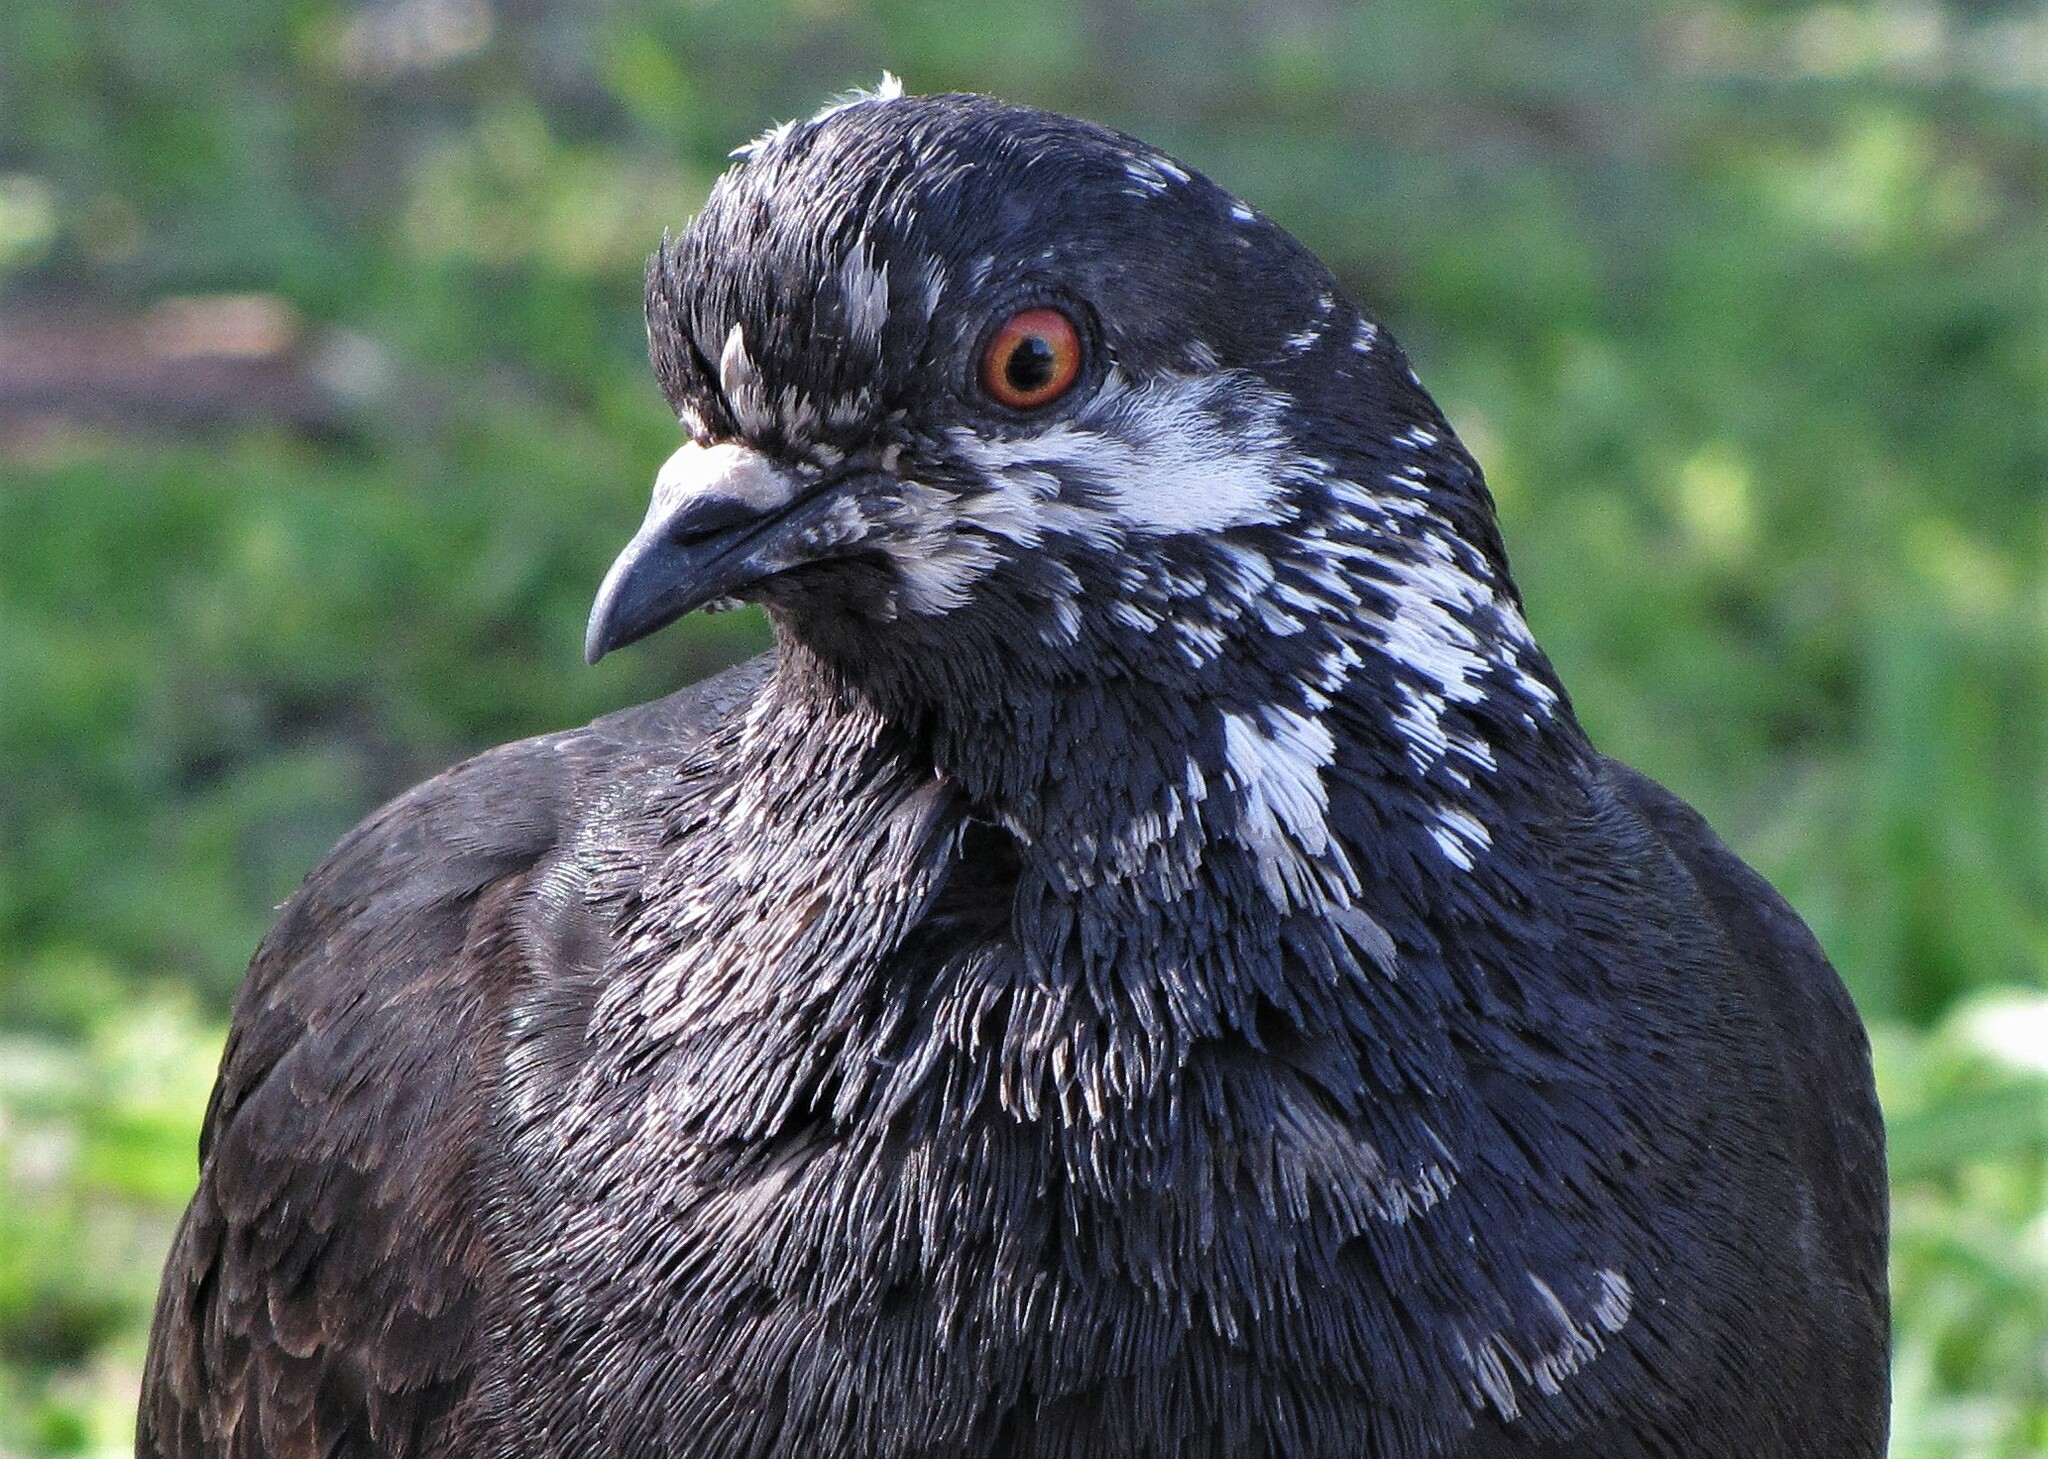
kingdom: Animalia
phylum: Chordata
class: Aves
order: Columbiformes
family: Columbidae
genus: Columba
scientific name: Columba livia
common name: Rock pigeon
